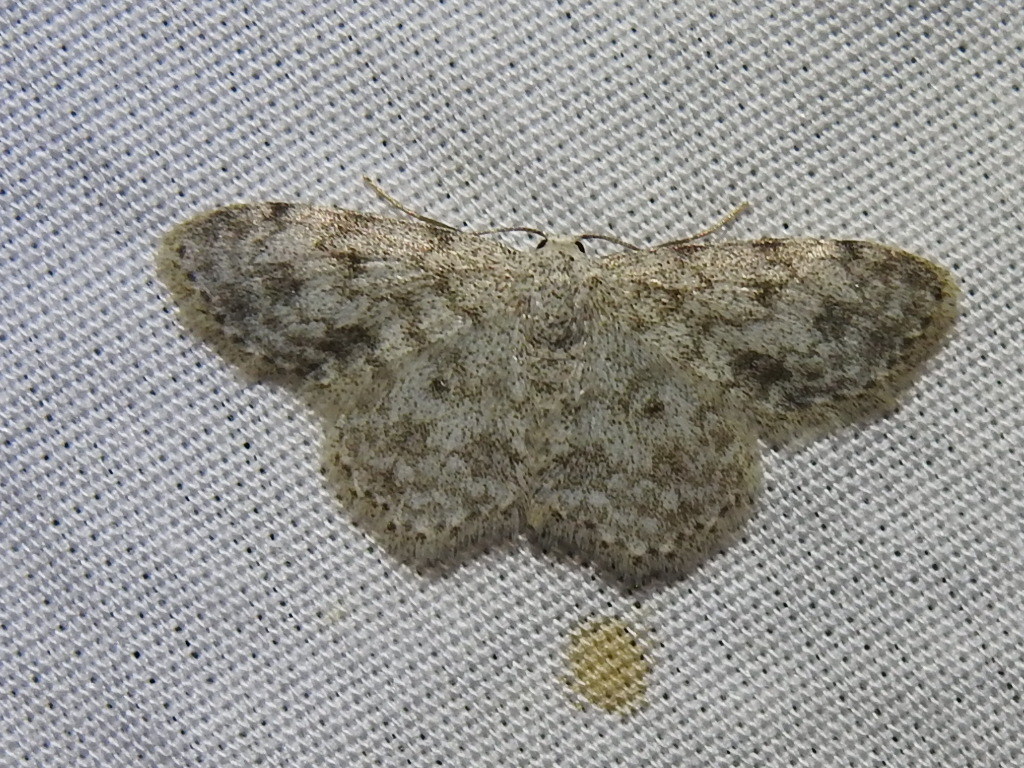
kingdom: Animalia
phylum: Arthropoda
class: Insecta
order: Lepidoptera
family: Geometridae
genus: Scopula
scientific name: Scopula plantagenaria
